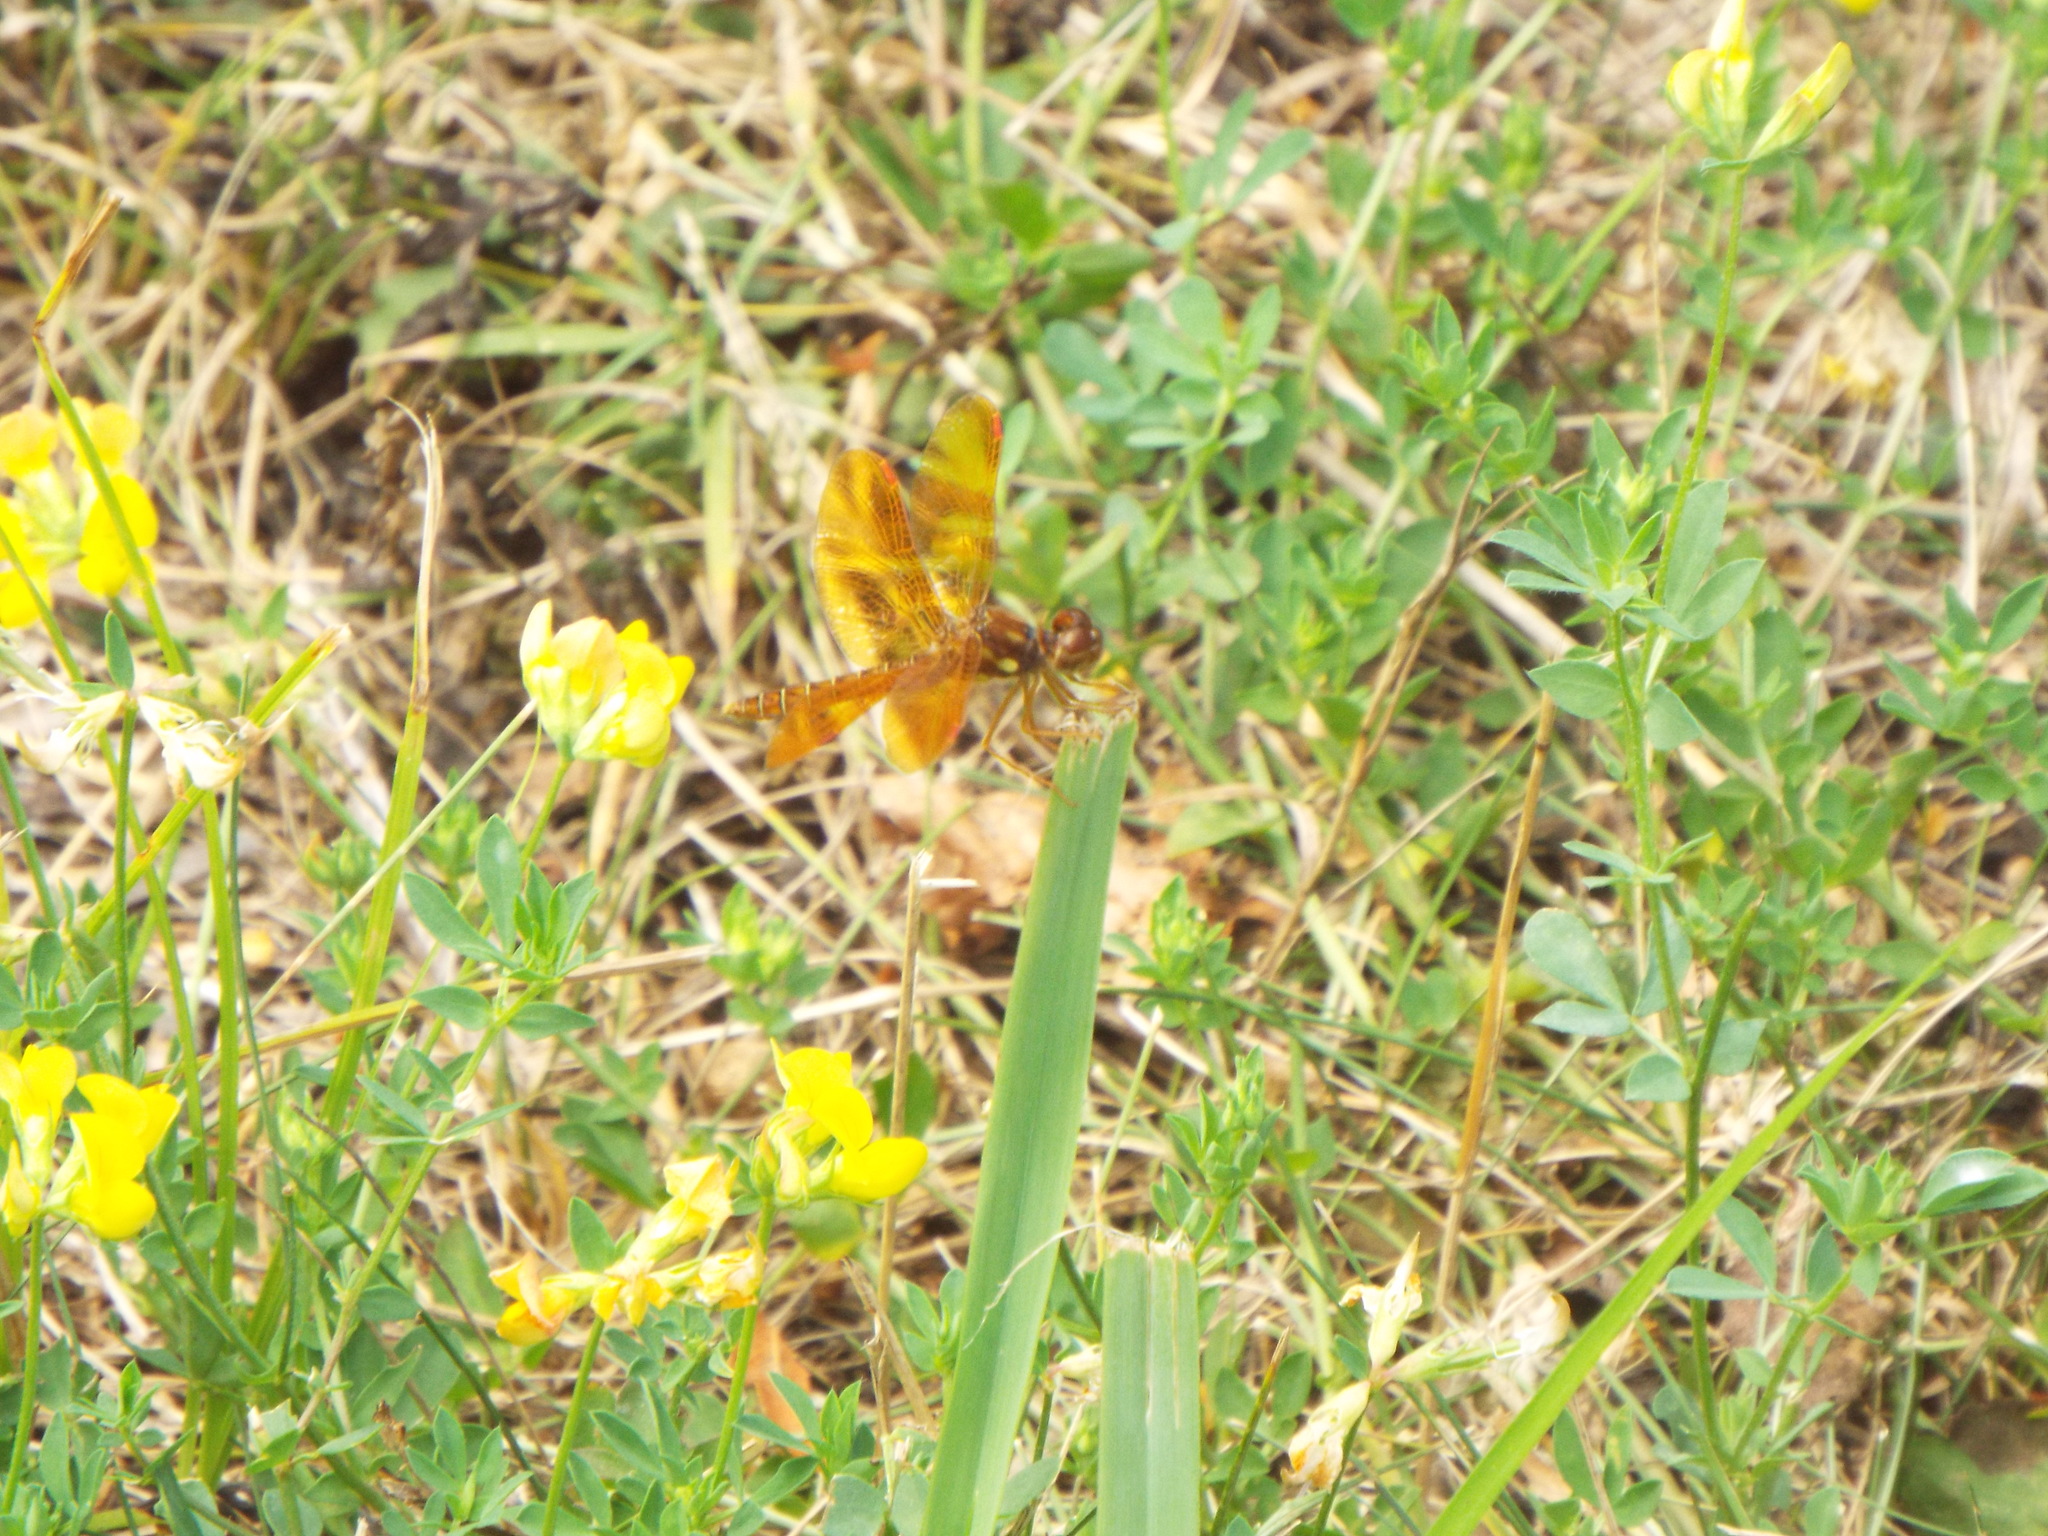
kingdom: Animalia
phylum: Arthropoda
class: Insecta
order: Odonata
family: Libellulidae
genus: Perithemis
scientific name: Perithemis tenera
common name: Eastern amberwing
